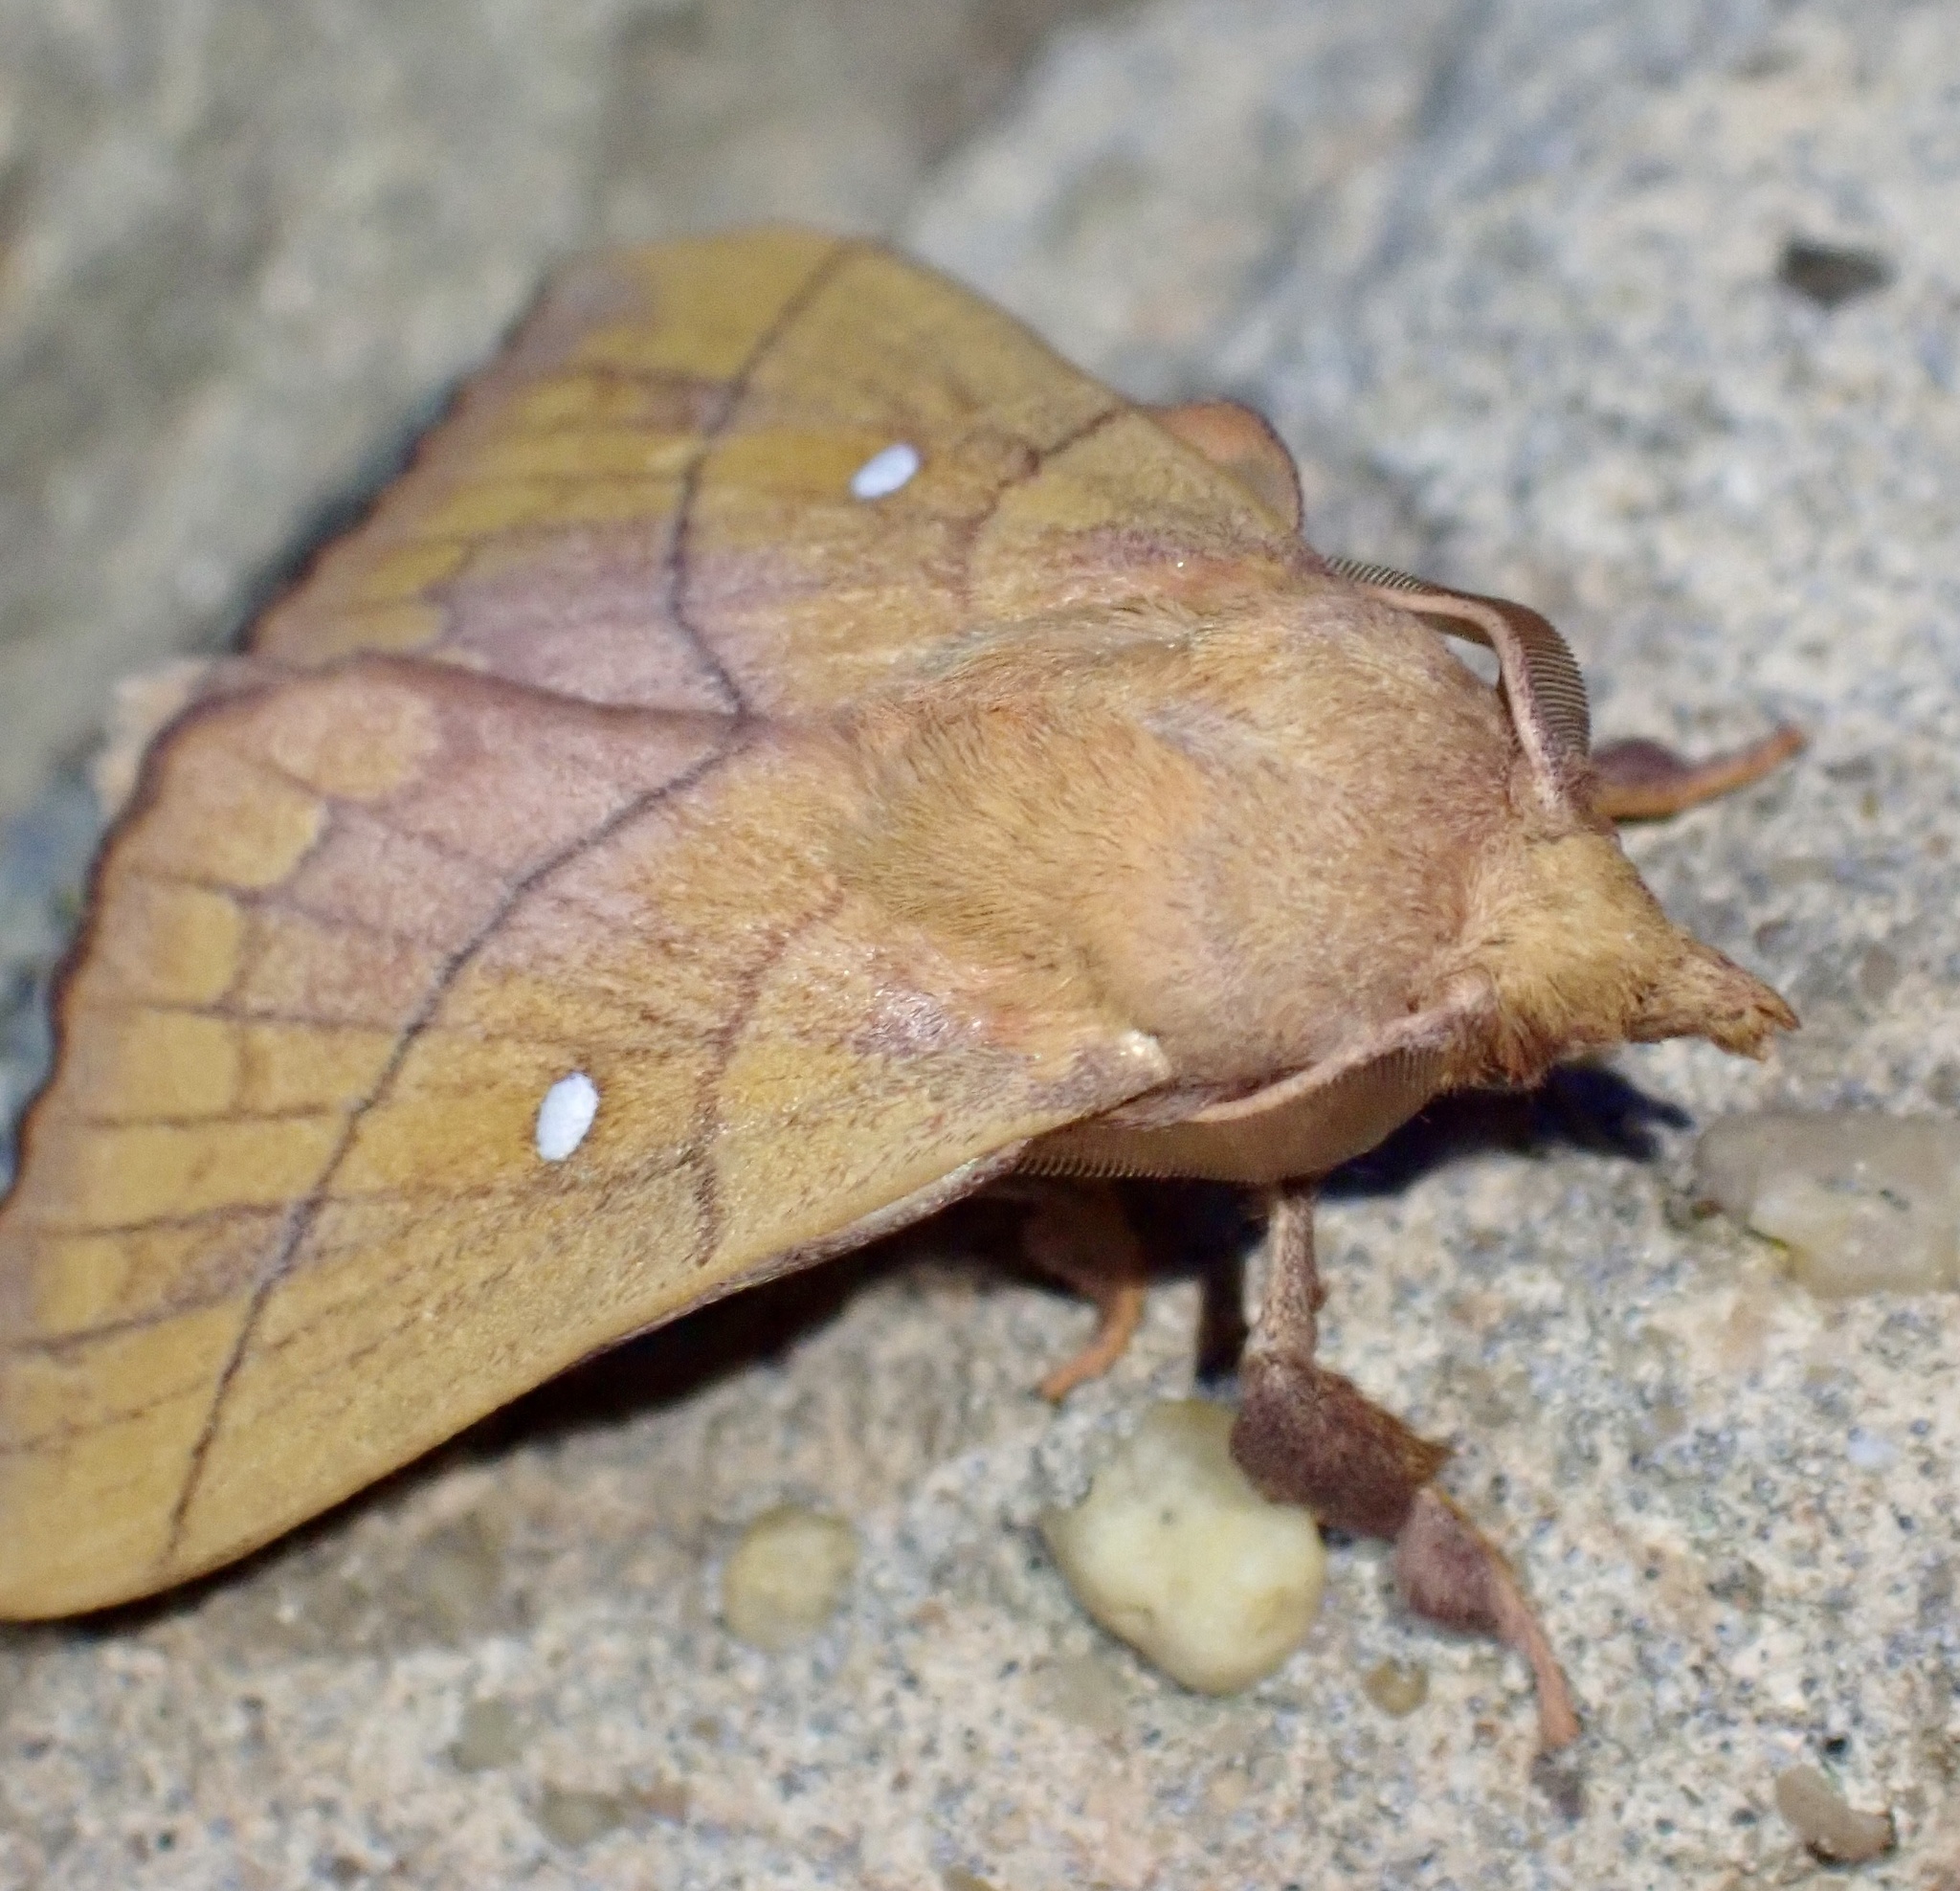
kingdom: Animalia
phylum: Arthropoda
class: Insecta
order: Lepidoptera
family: Lasiocampidae
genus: Odonestis
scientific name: Odonestis pruni
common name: Plum lappet
